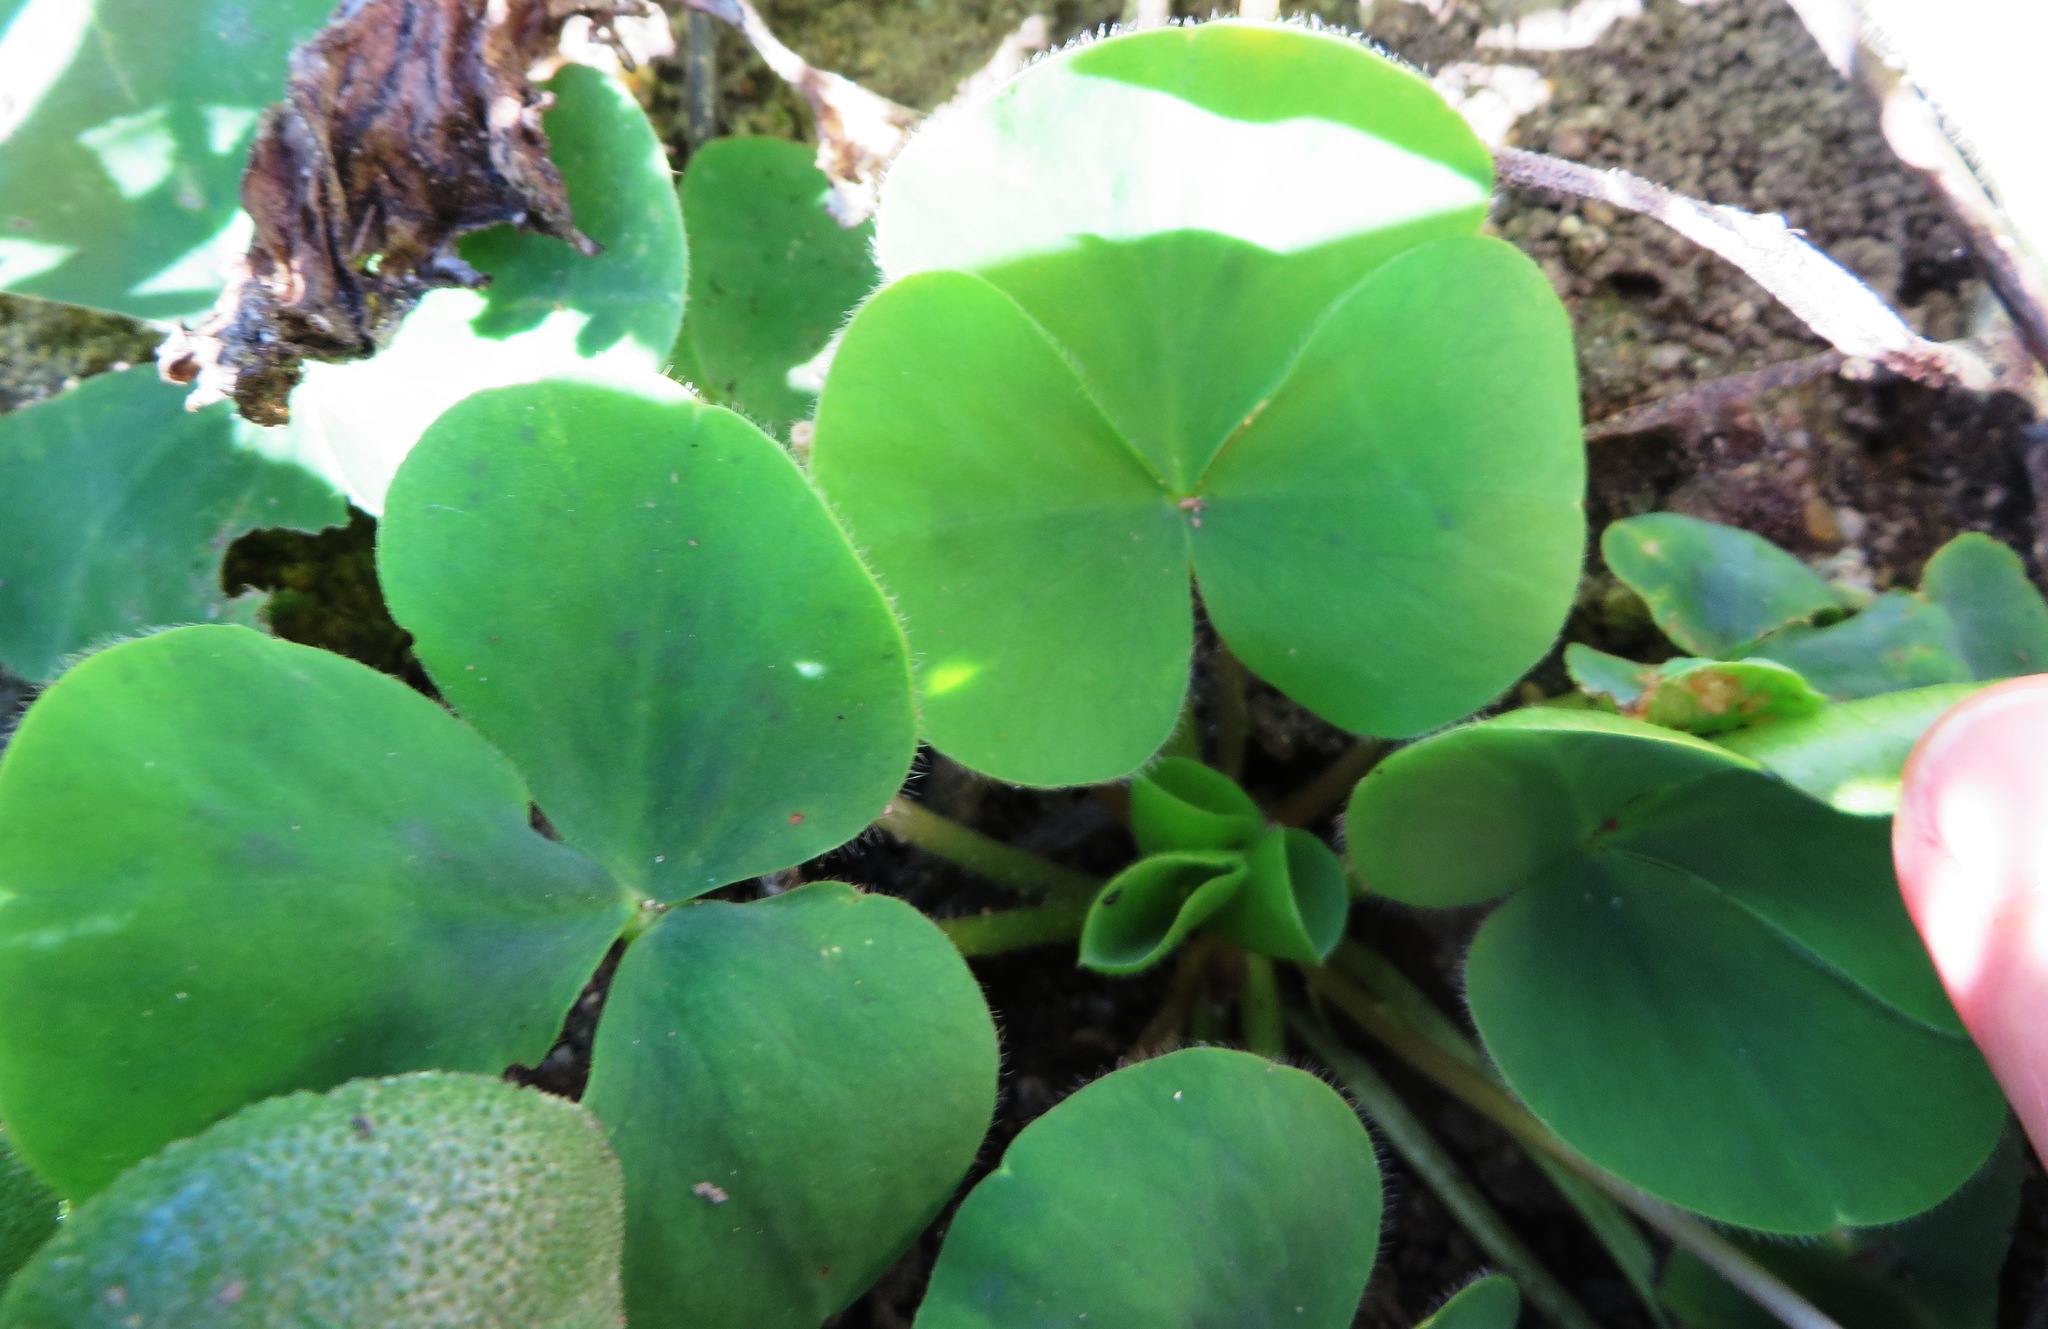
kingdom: Plantae
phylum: Tracheophyta
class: Magnoliopsida
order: Oxalidales
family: Oxalidaceae
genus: Oxalis
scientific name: Oxalis purpurea
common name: Purple woodsorrel
